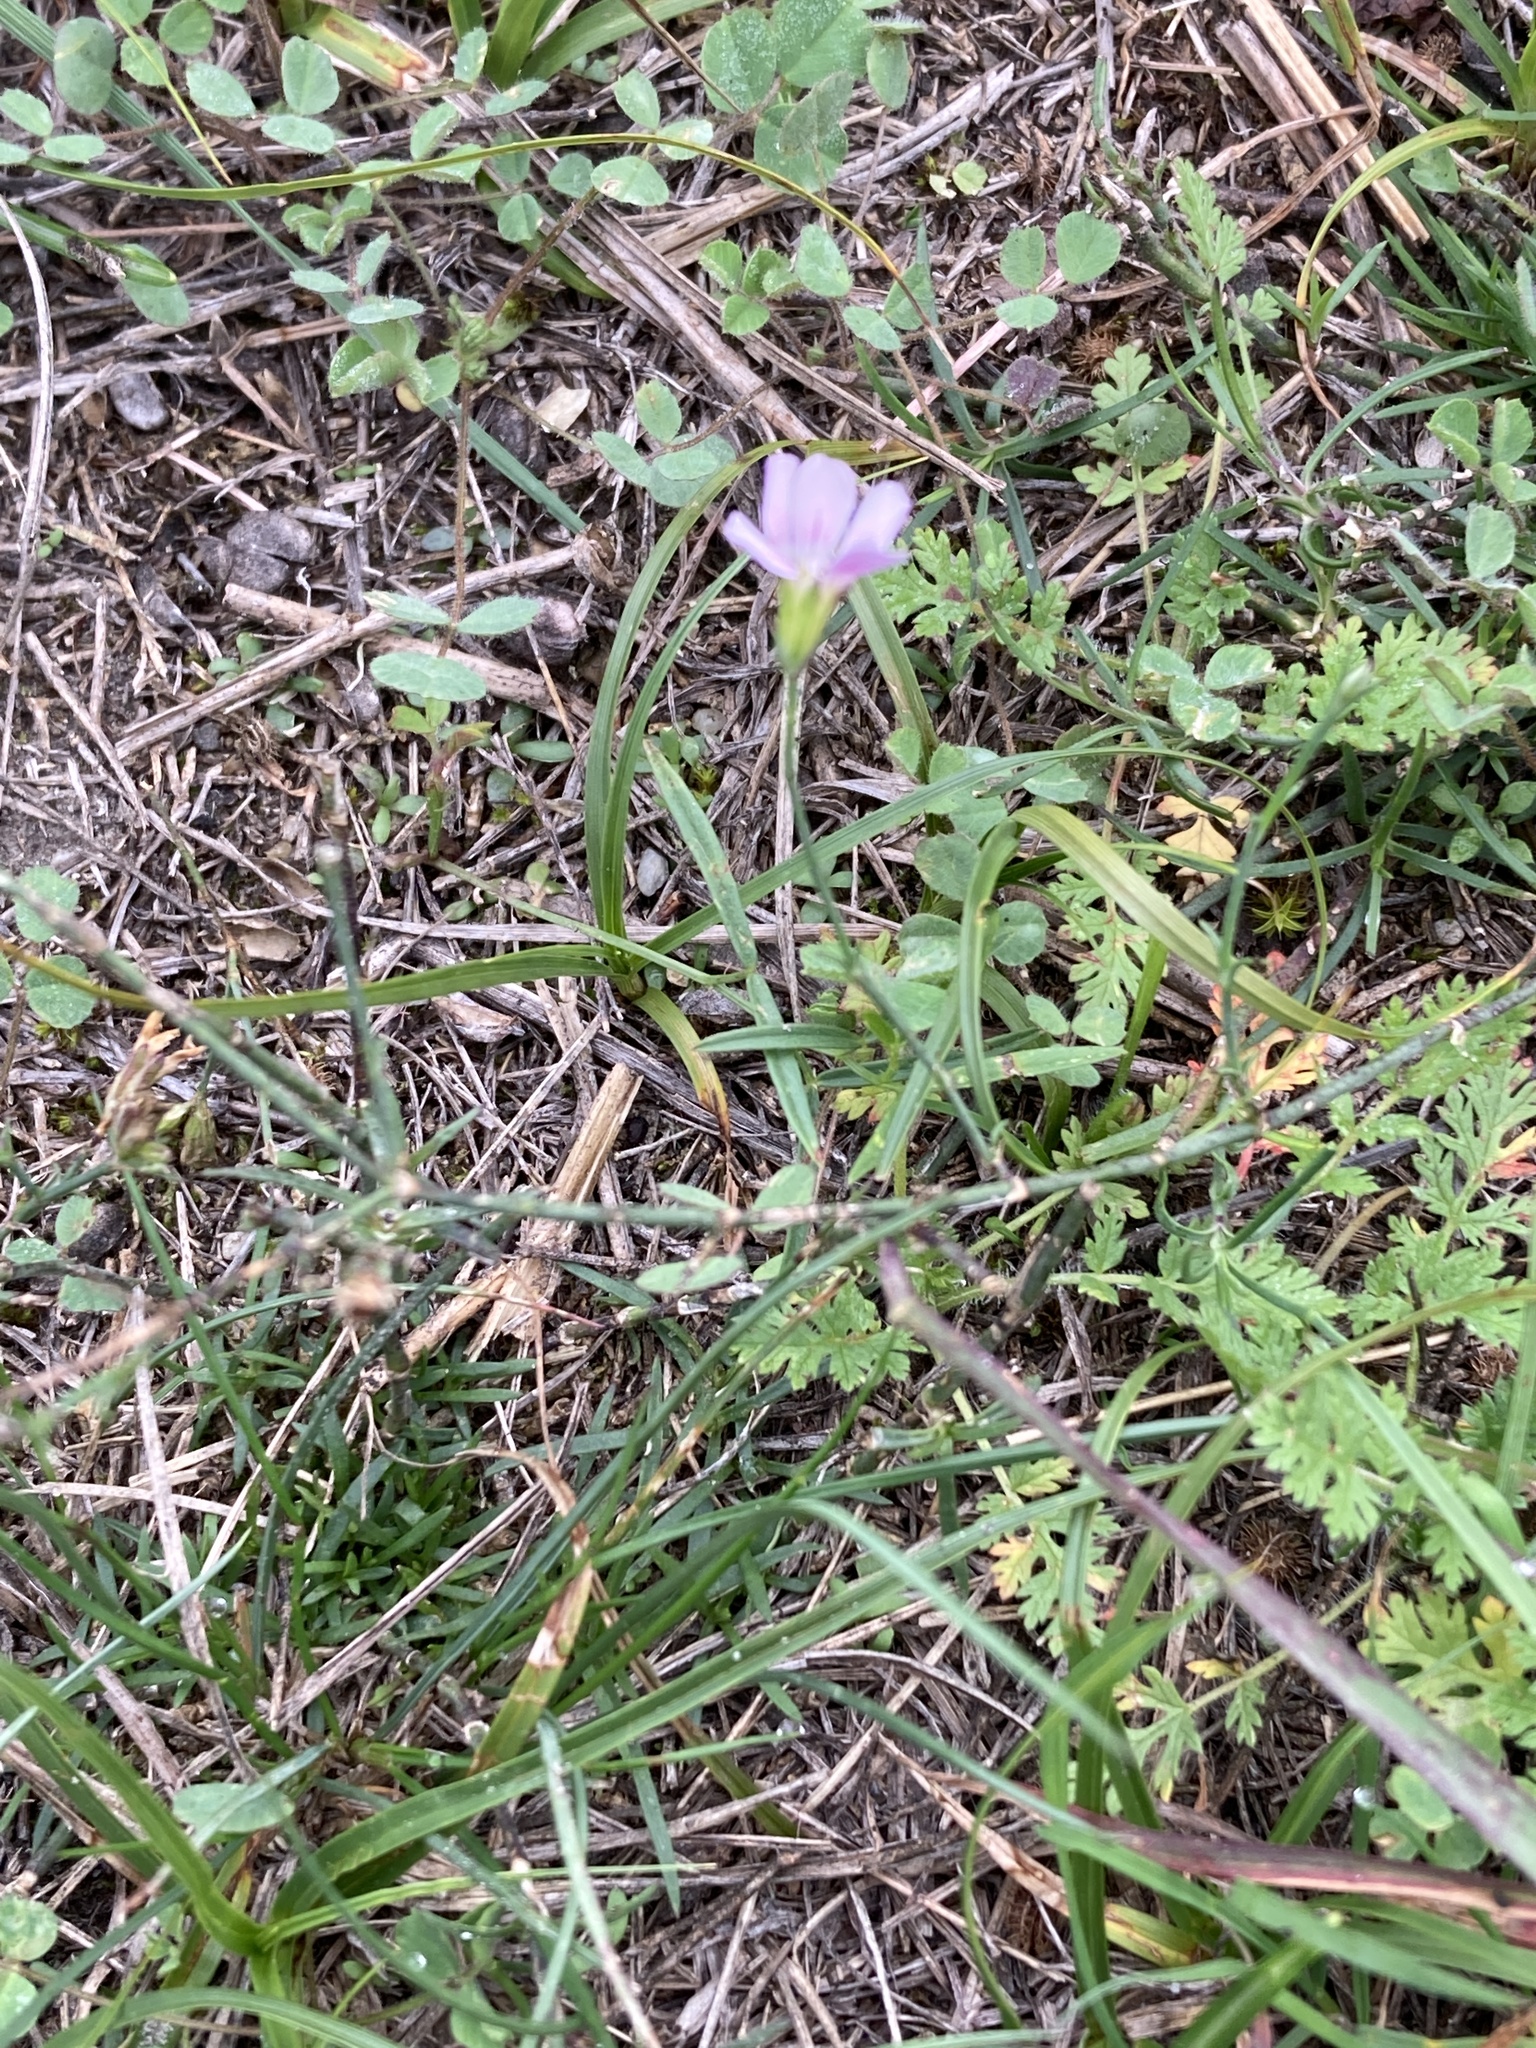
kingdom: Plantae
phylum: Tracheophyta
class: Magnoliopsida
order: Caryophyllales
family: Caryophyllaceae
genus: Petrorhagia
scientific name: Petrorhagia saxifraga
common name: Tunicflower
